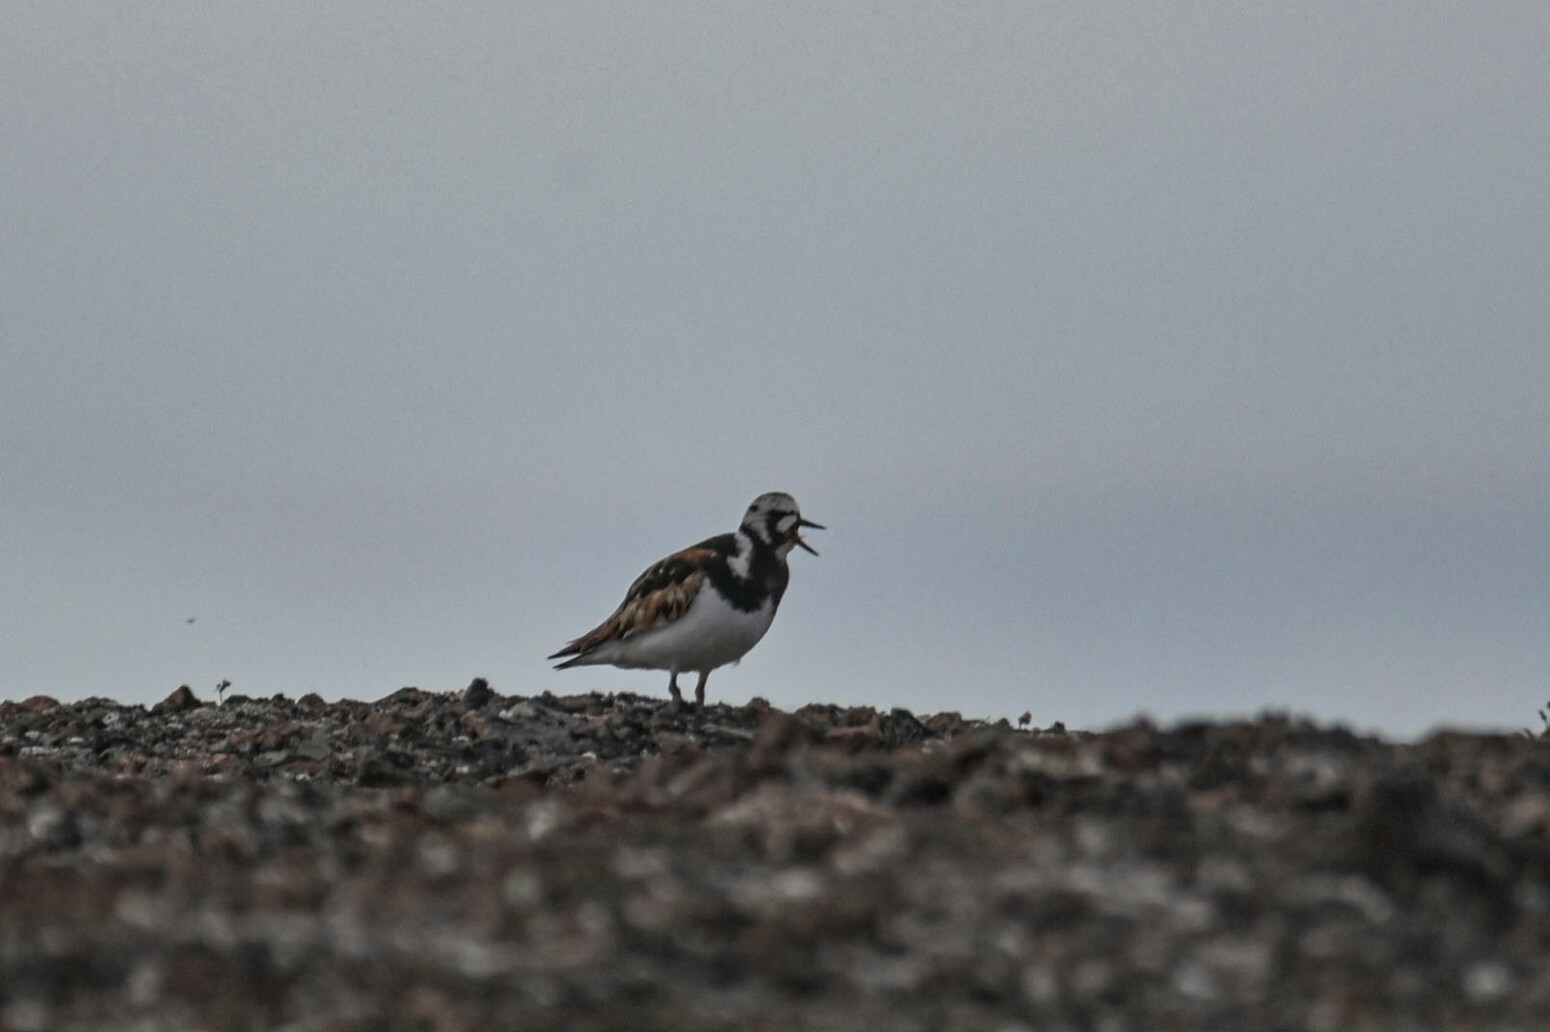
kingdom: Animalia
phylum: Chordata
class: Aves
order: Charadriiformes
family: Scolopacidae
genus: Arenaria
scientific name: Arenaria interpres
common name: Ruddy turnstone
